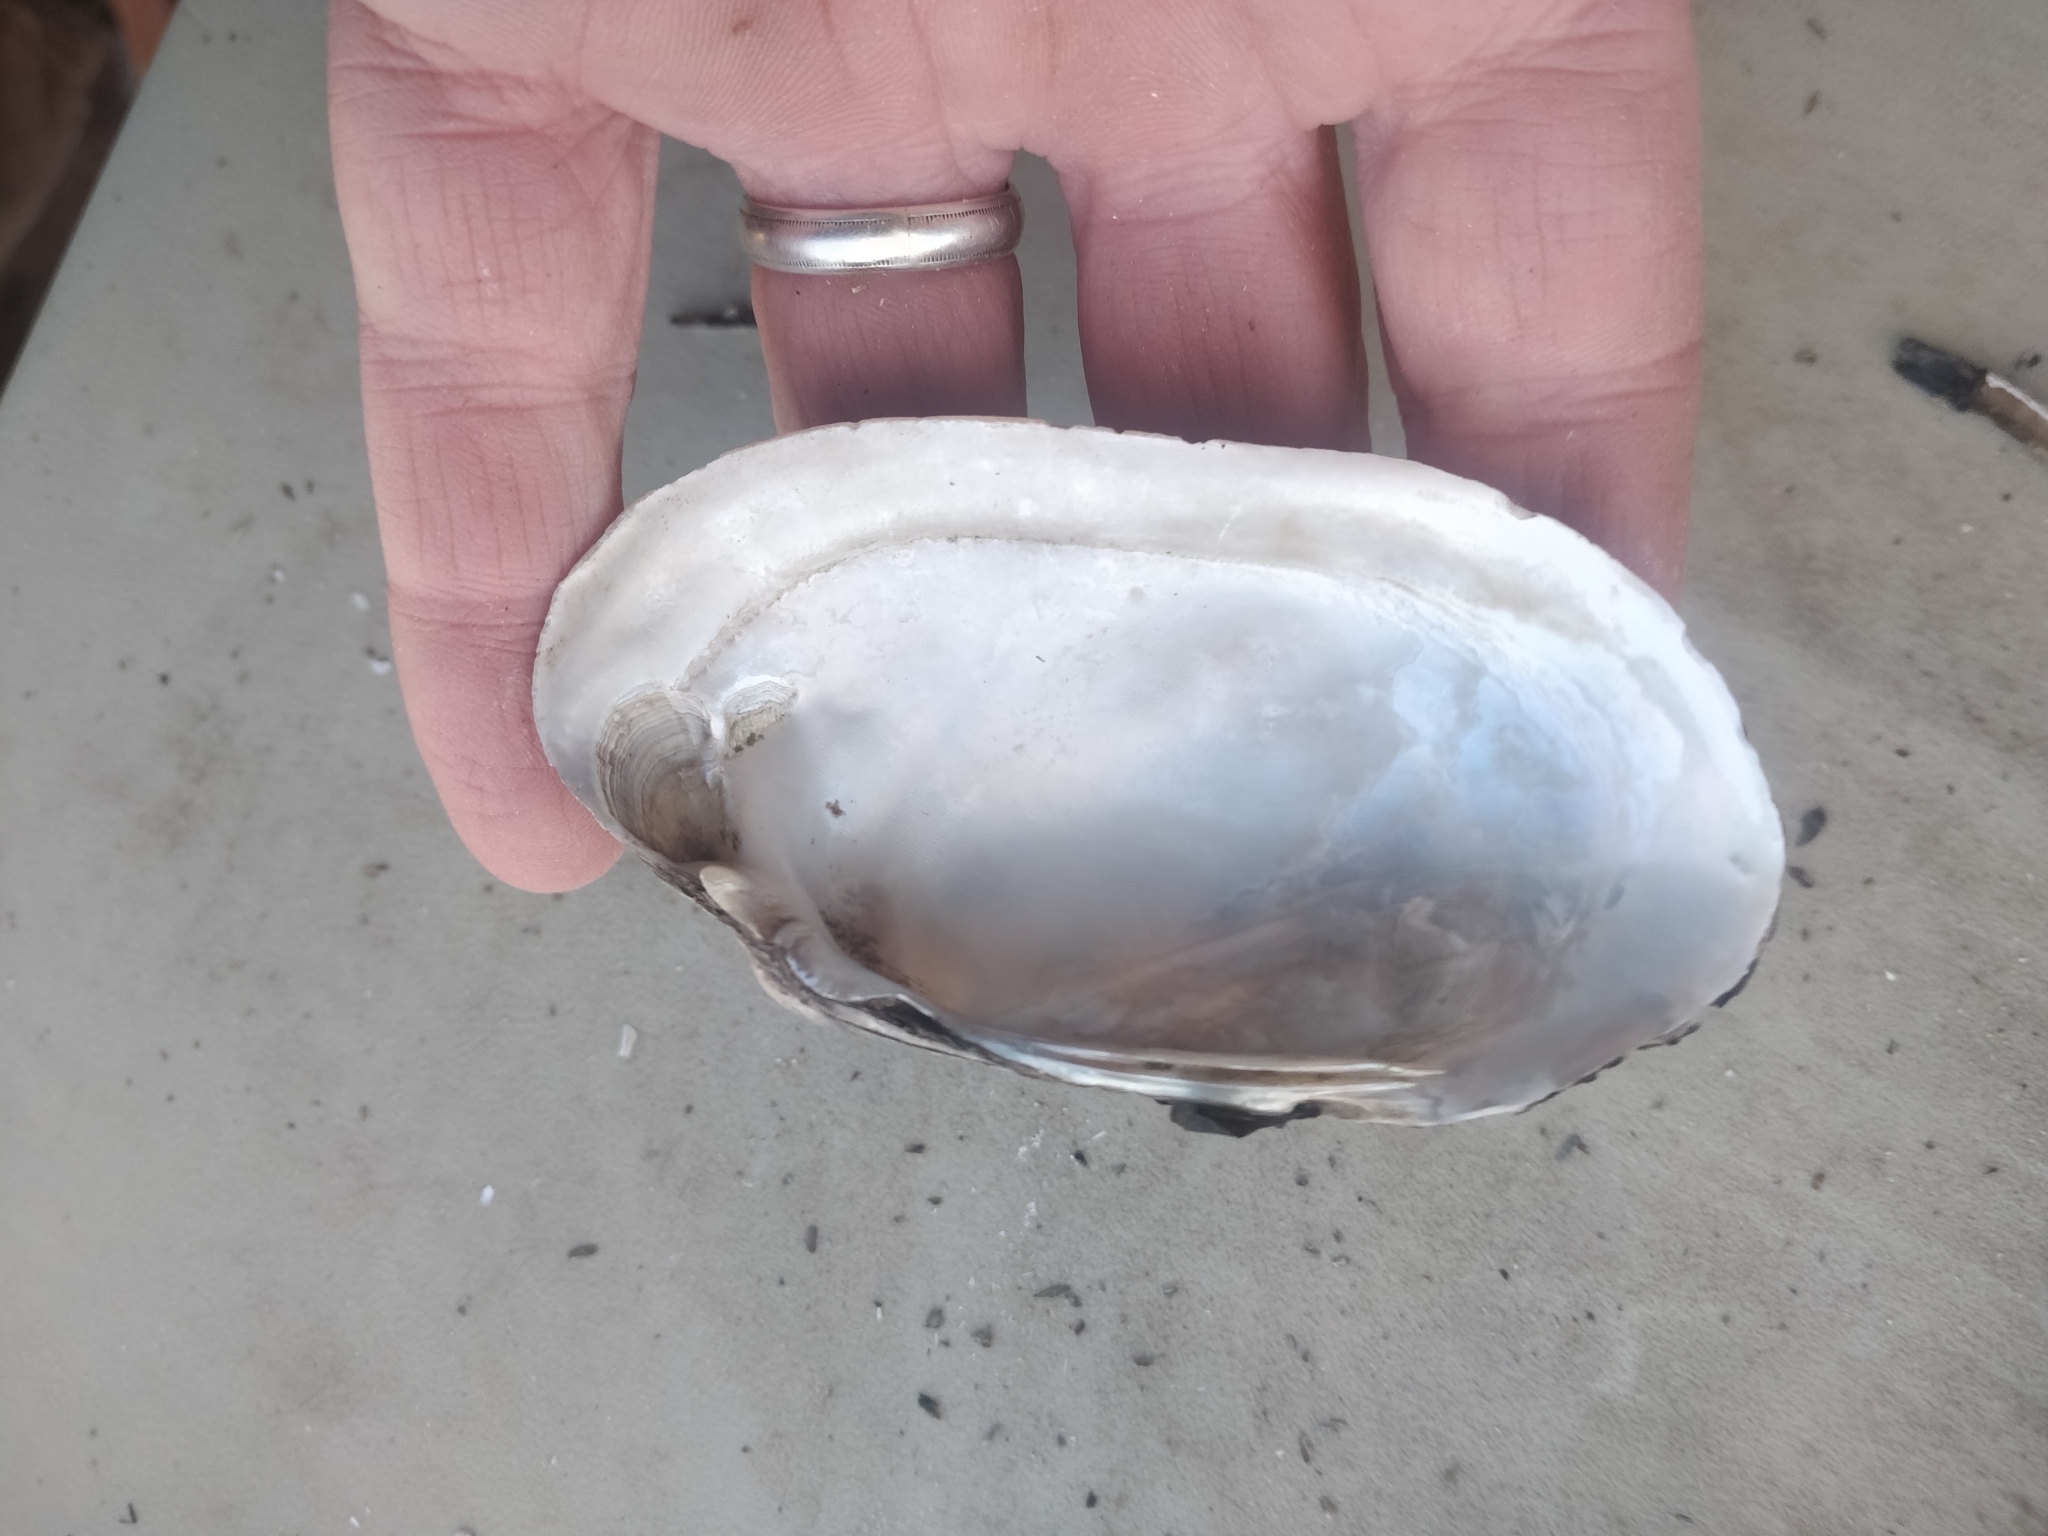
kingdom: Animalia
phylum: Mollusca
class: Bivalvia
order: Unionida
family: Unionidae
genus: Lampsilis
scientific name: Lampsilis siliquoidea
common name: Fatmucket
